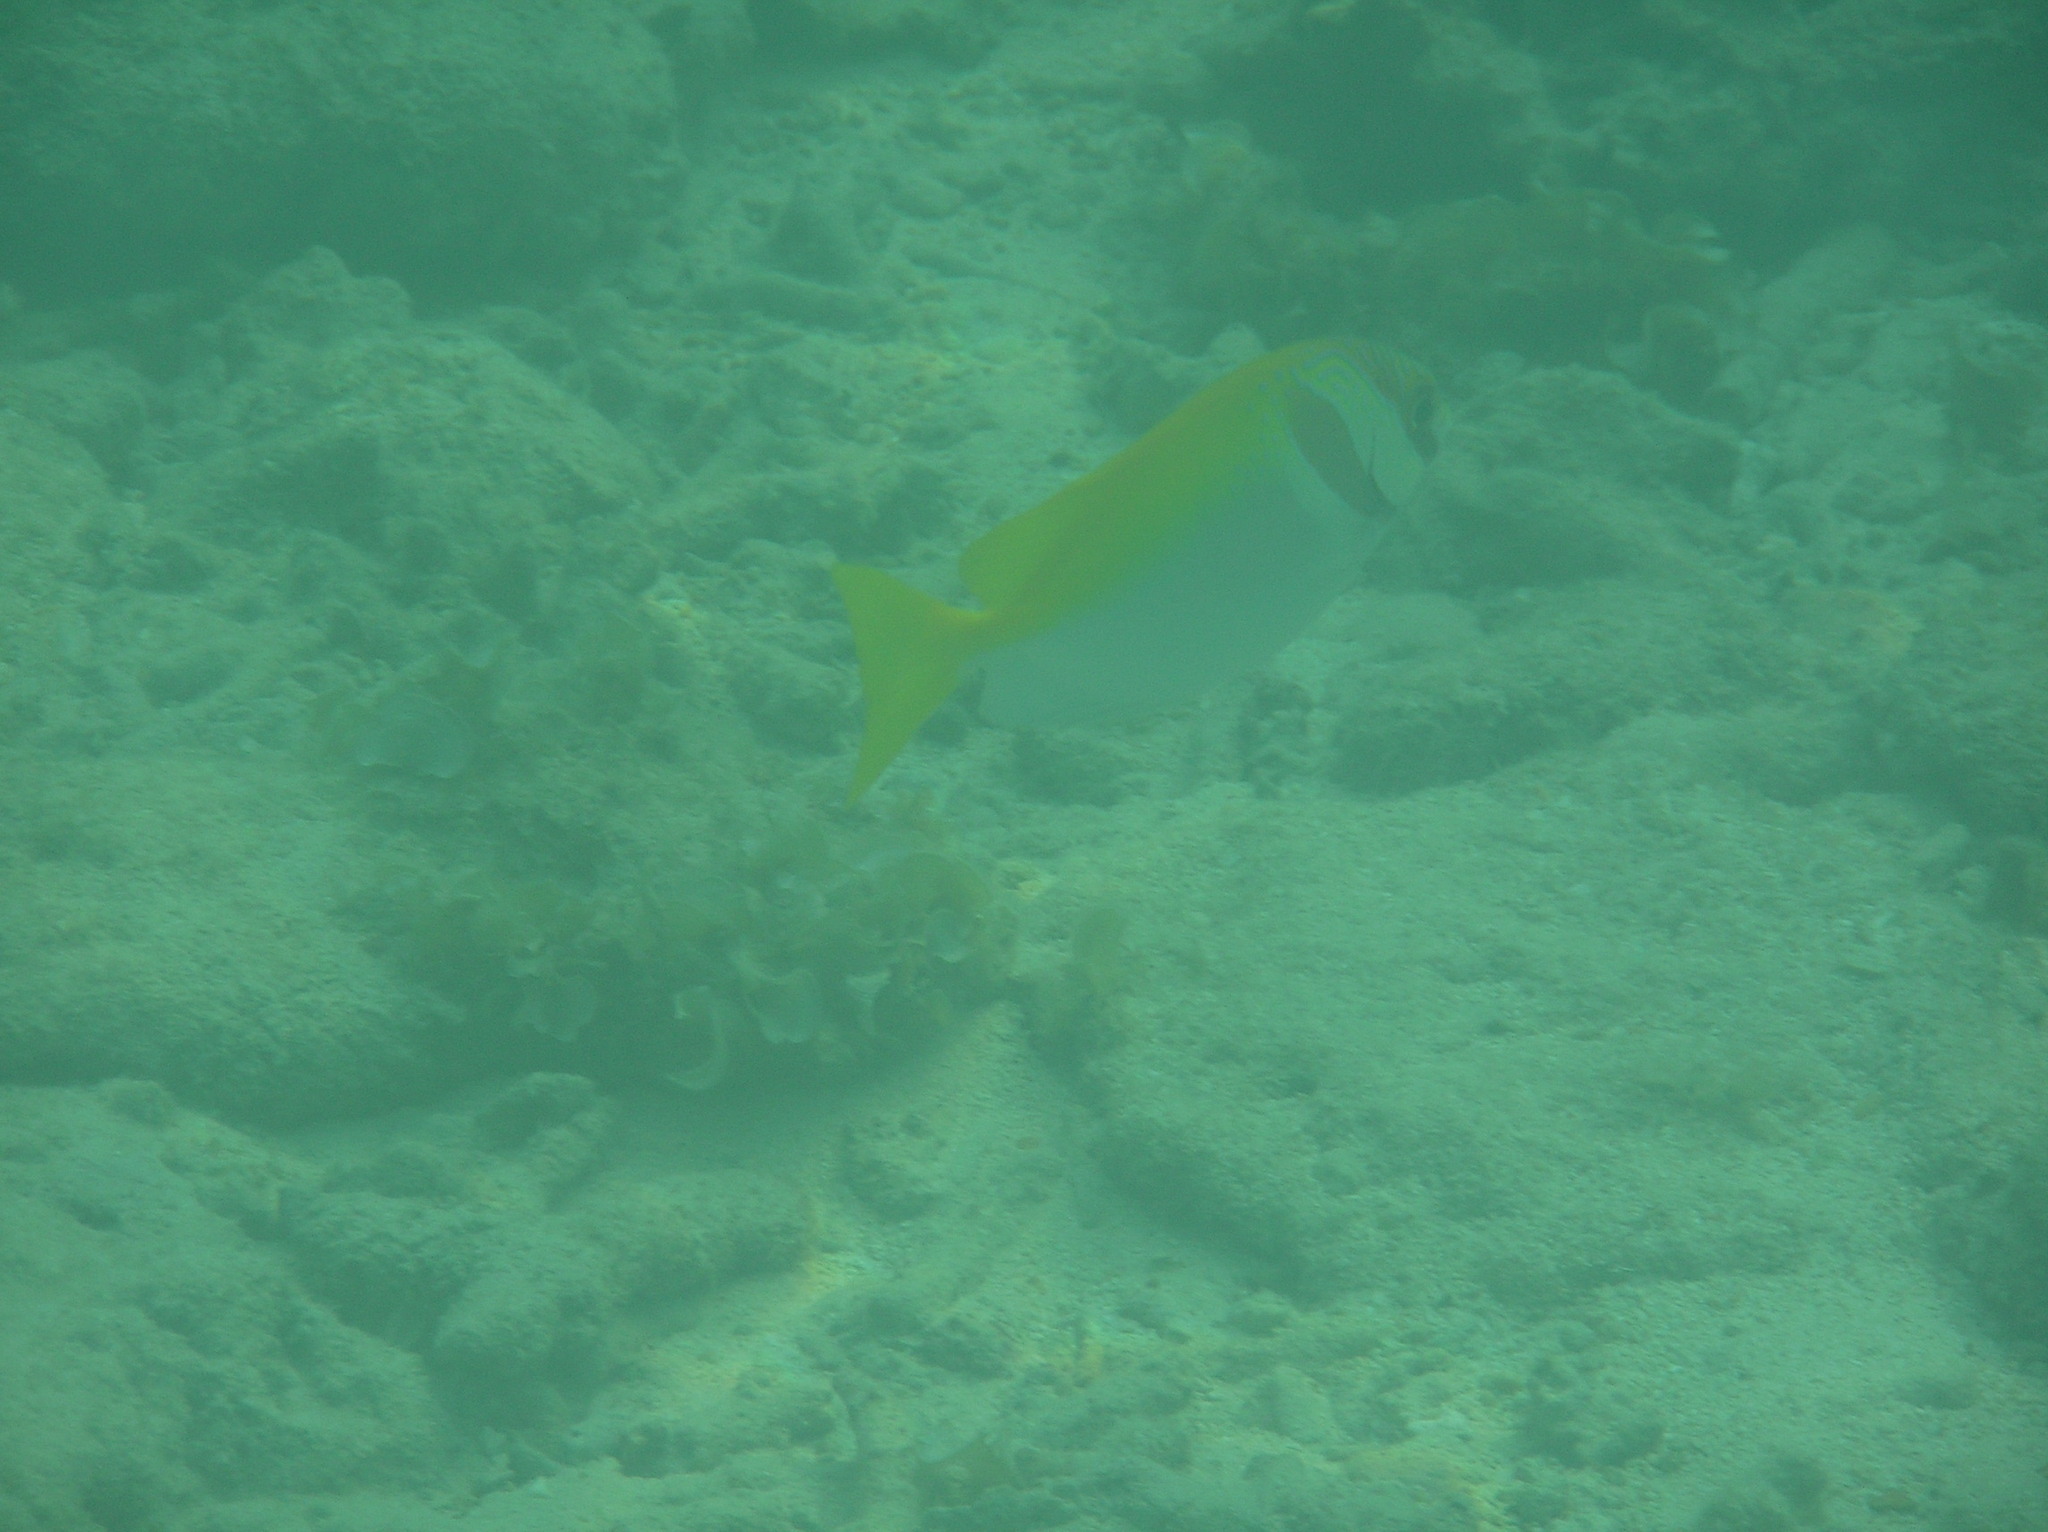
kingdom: Animalia
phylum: Chordata
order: Perciformes
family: Siganidae
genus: Siganus
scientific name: Siganus virgatus
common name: Barhead spinefoot
